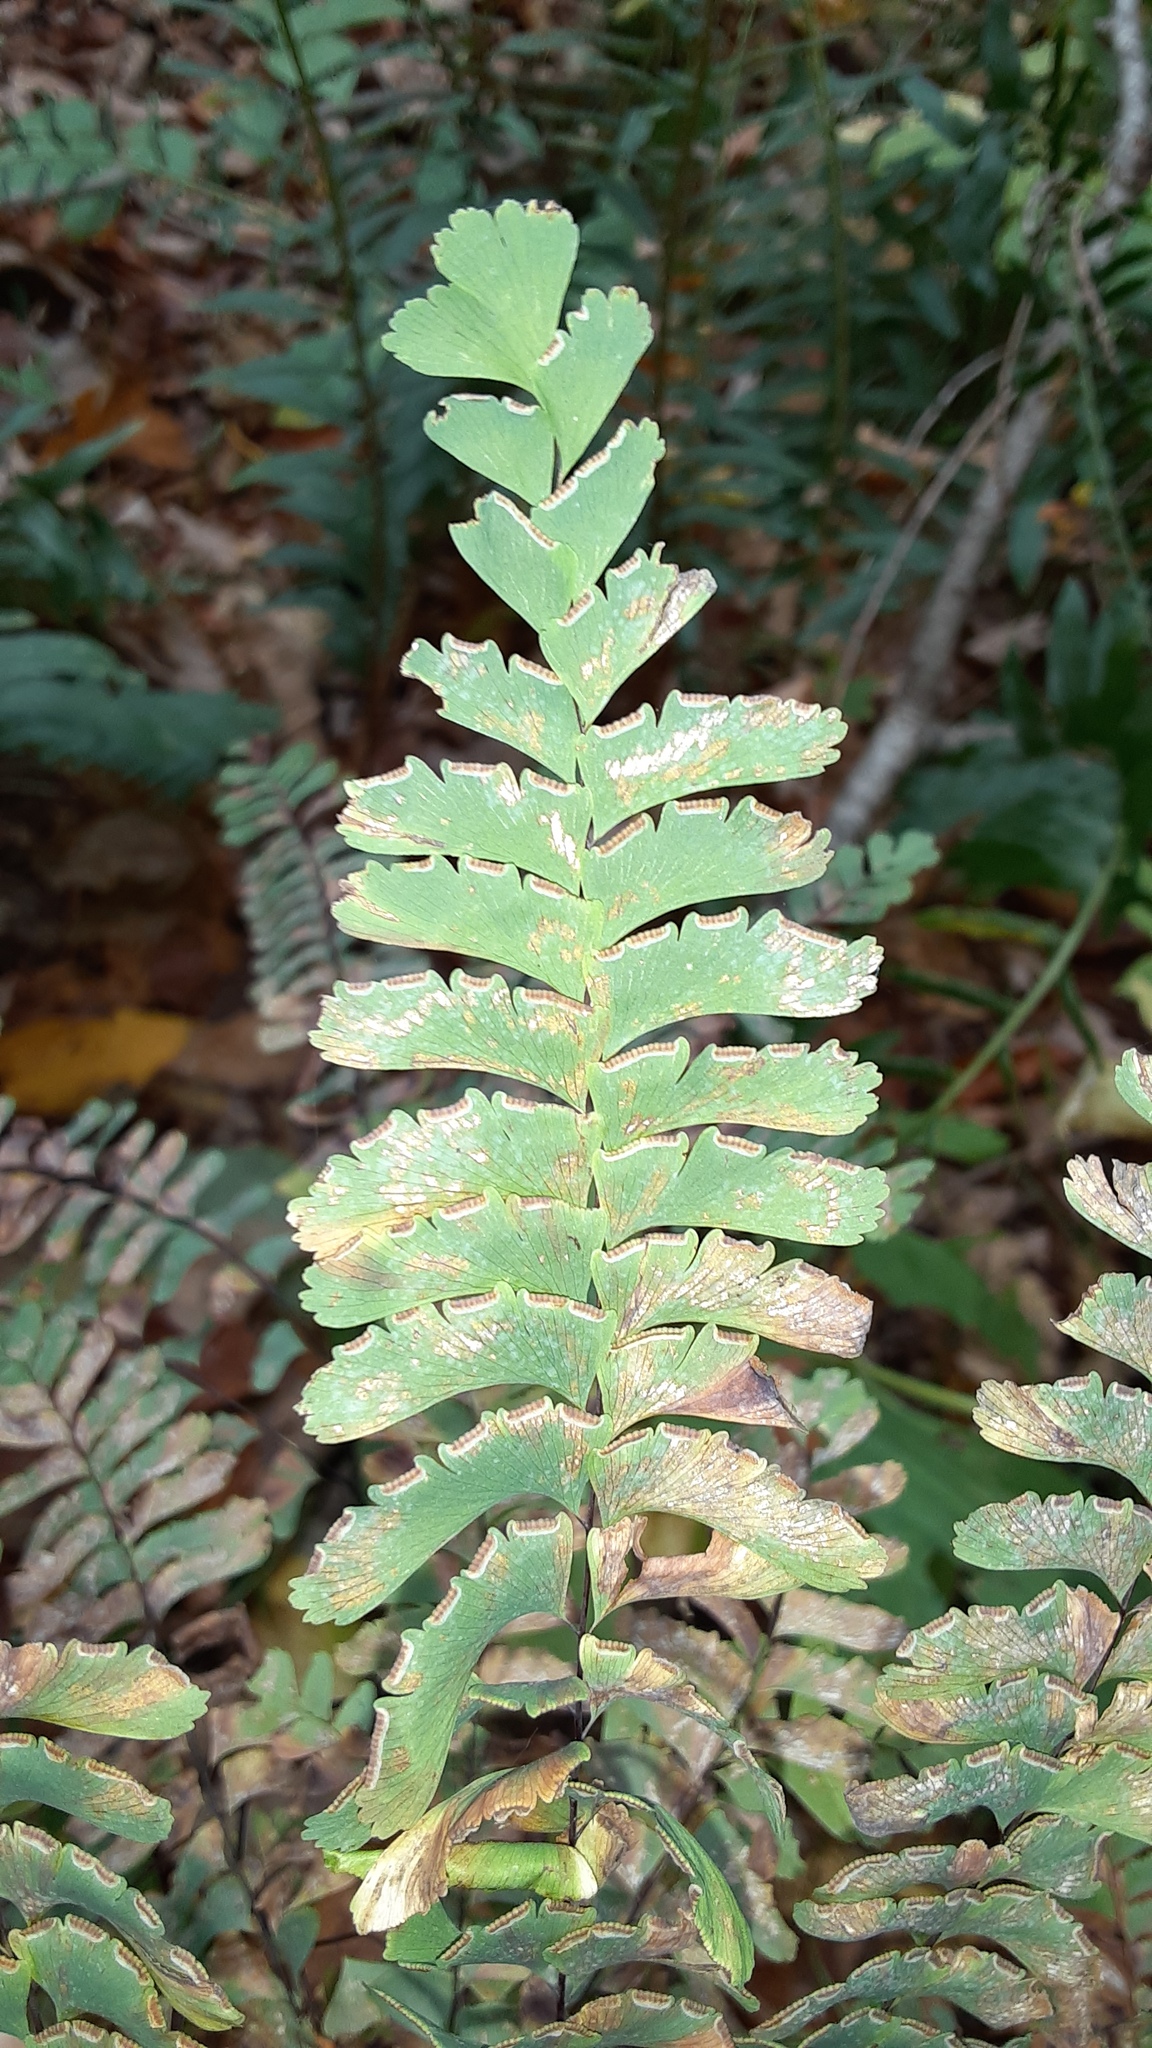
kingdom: Plantae
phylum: Tracheophyta
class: Polypodiopsida
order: Polypodiales
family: Pteridaceae
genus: Adiantum
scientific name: Adiantum pedatum
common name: Five-finger fern
